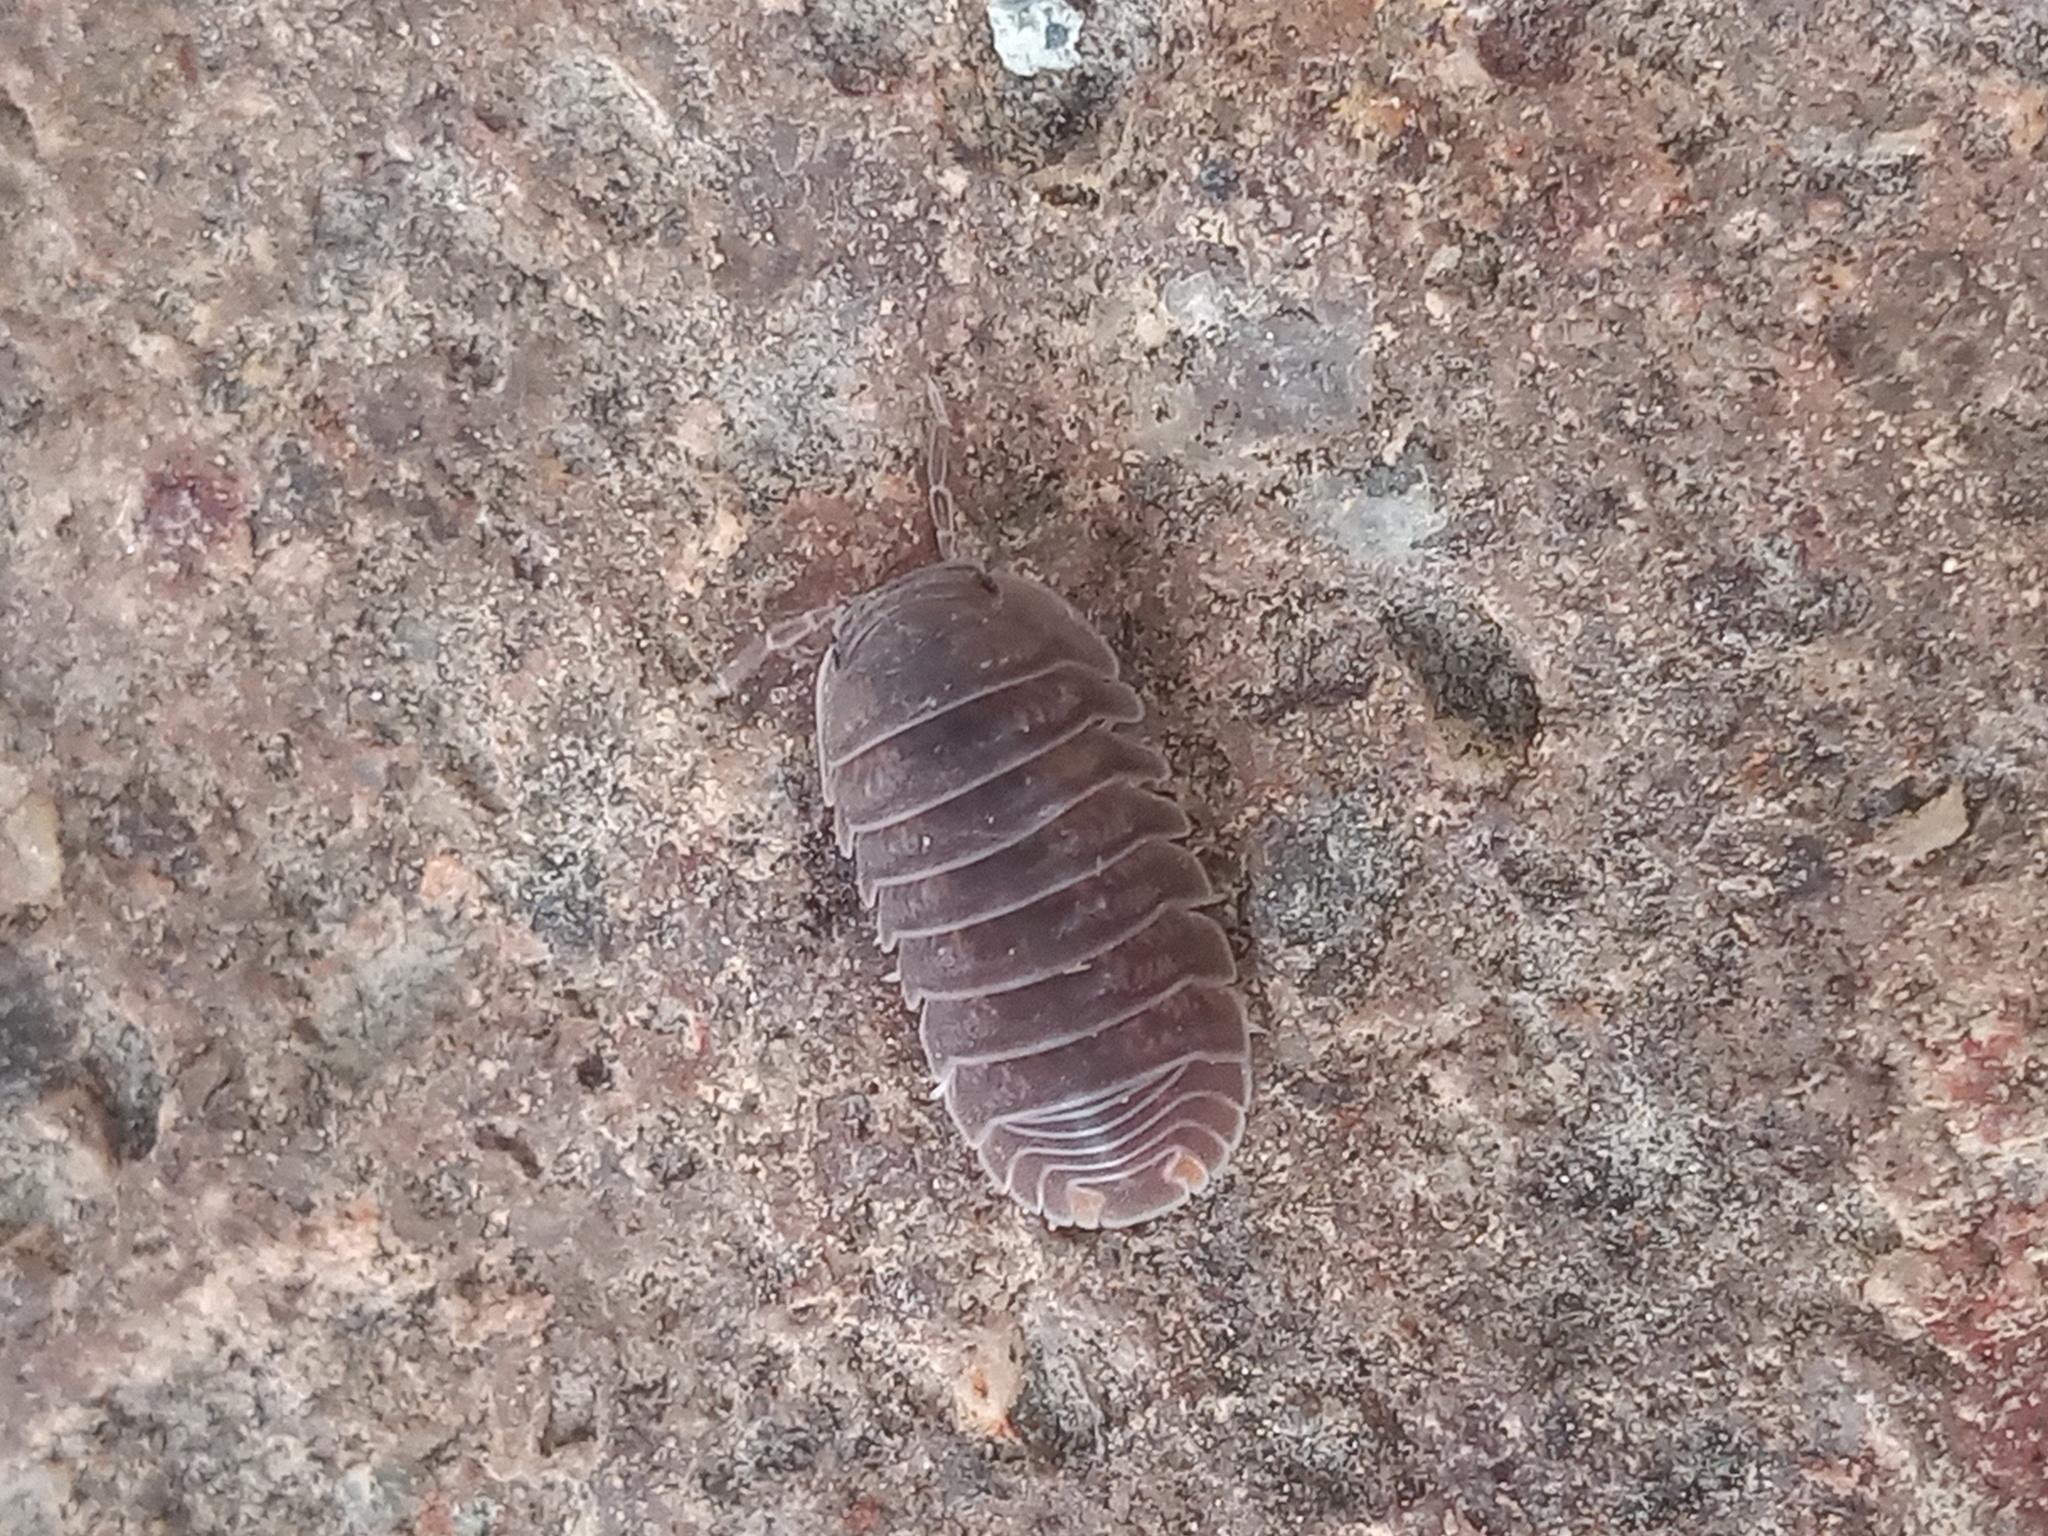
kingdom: Animalia
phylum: Arthropoda
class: Malacostraca
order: Isopoda
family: Armadillidae
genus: Cubaris
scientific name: Cubaris murina
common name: Pillbug
